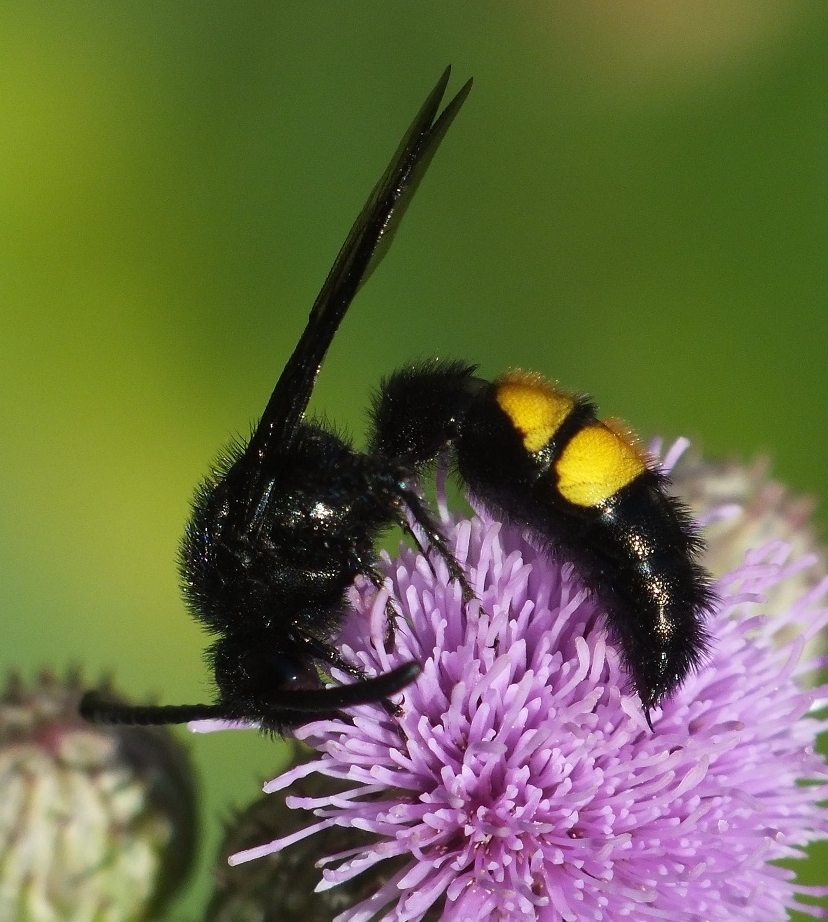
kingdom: Animalia
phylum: Arthropoda
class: Insecta
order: Hymenoptera
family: Scoliidae
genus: Scolia
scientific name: Scolia hirta
